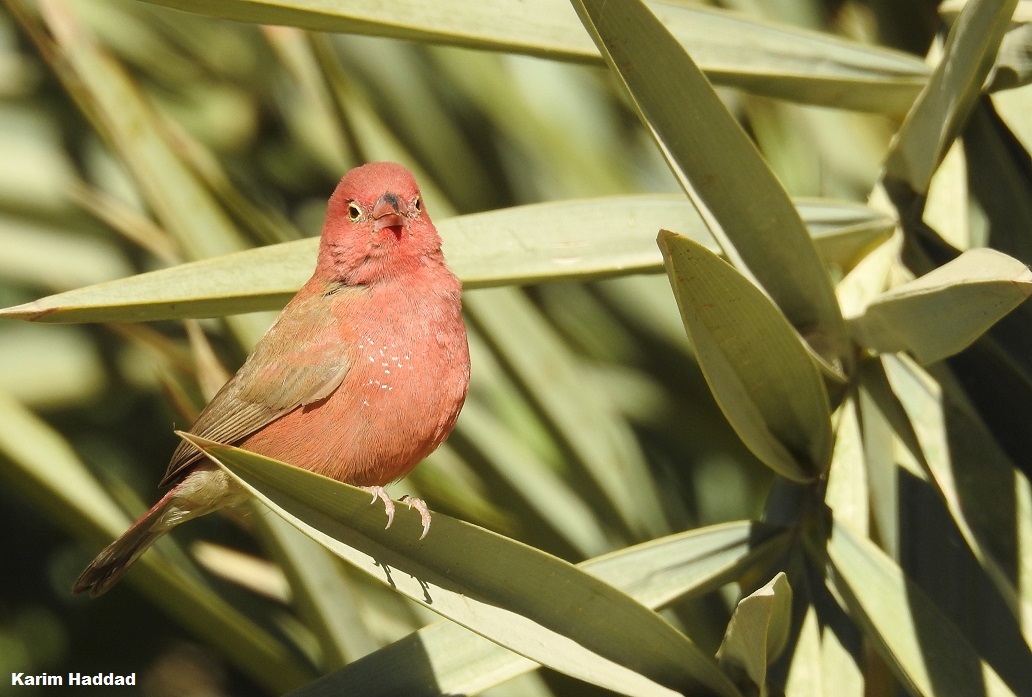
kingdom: Animalia
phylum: Chordata
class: Aves
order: Passeriformes
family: Estrildidae
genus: Lagonosticta
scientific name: Lagonosticta senegala
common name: Red-billed firefinch
